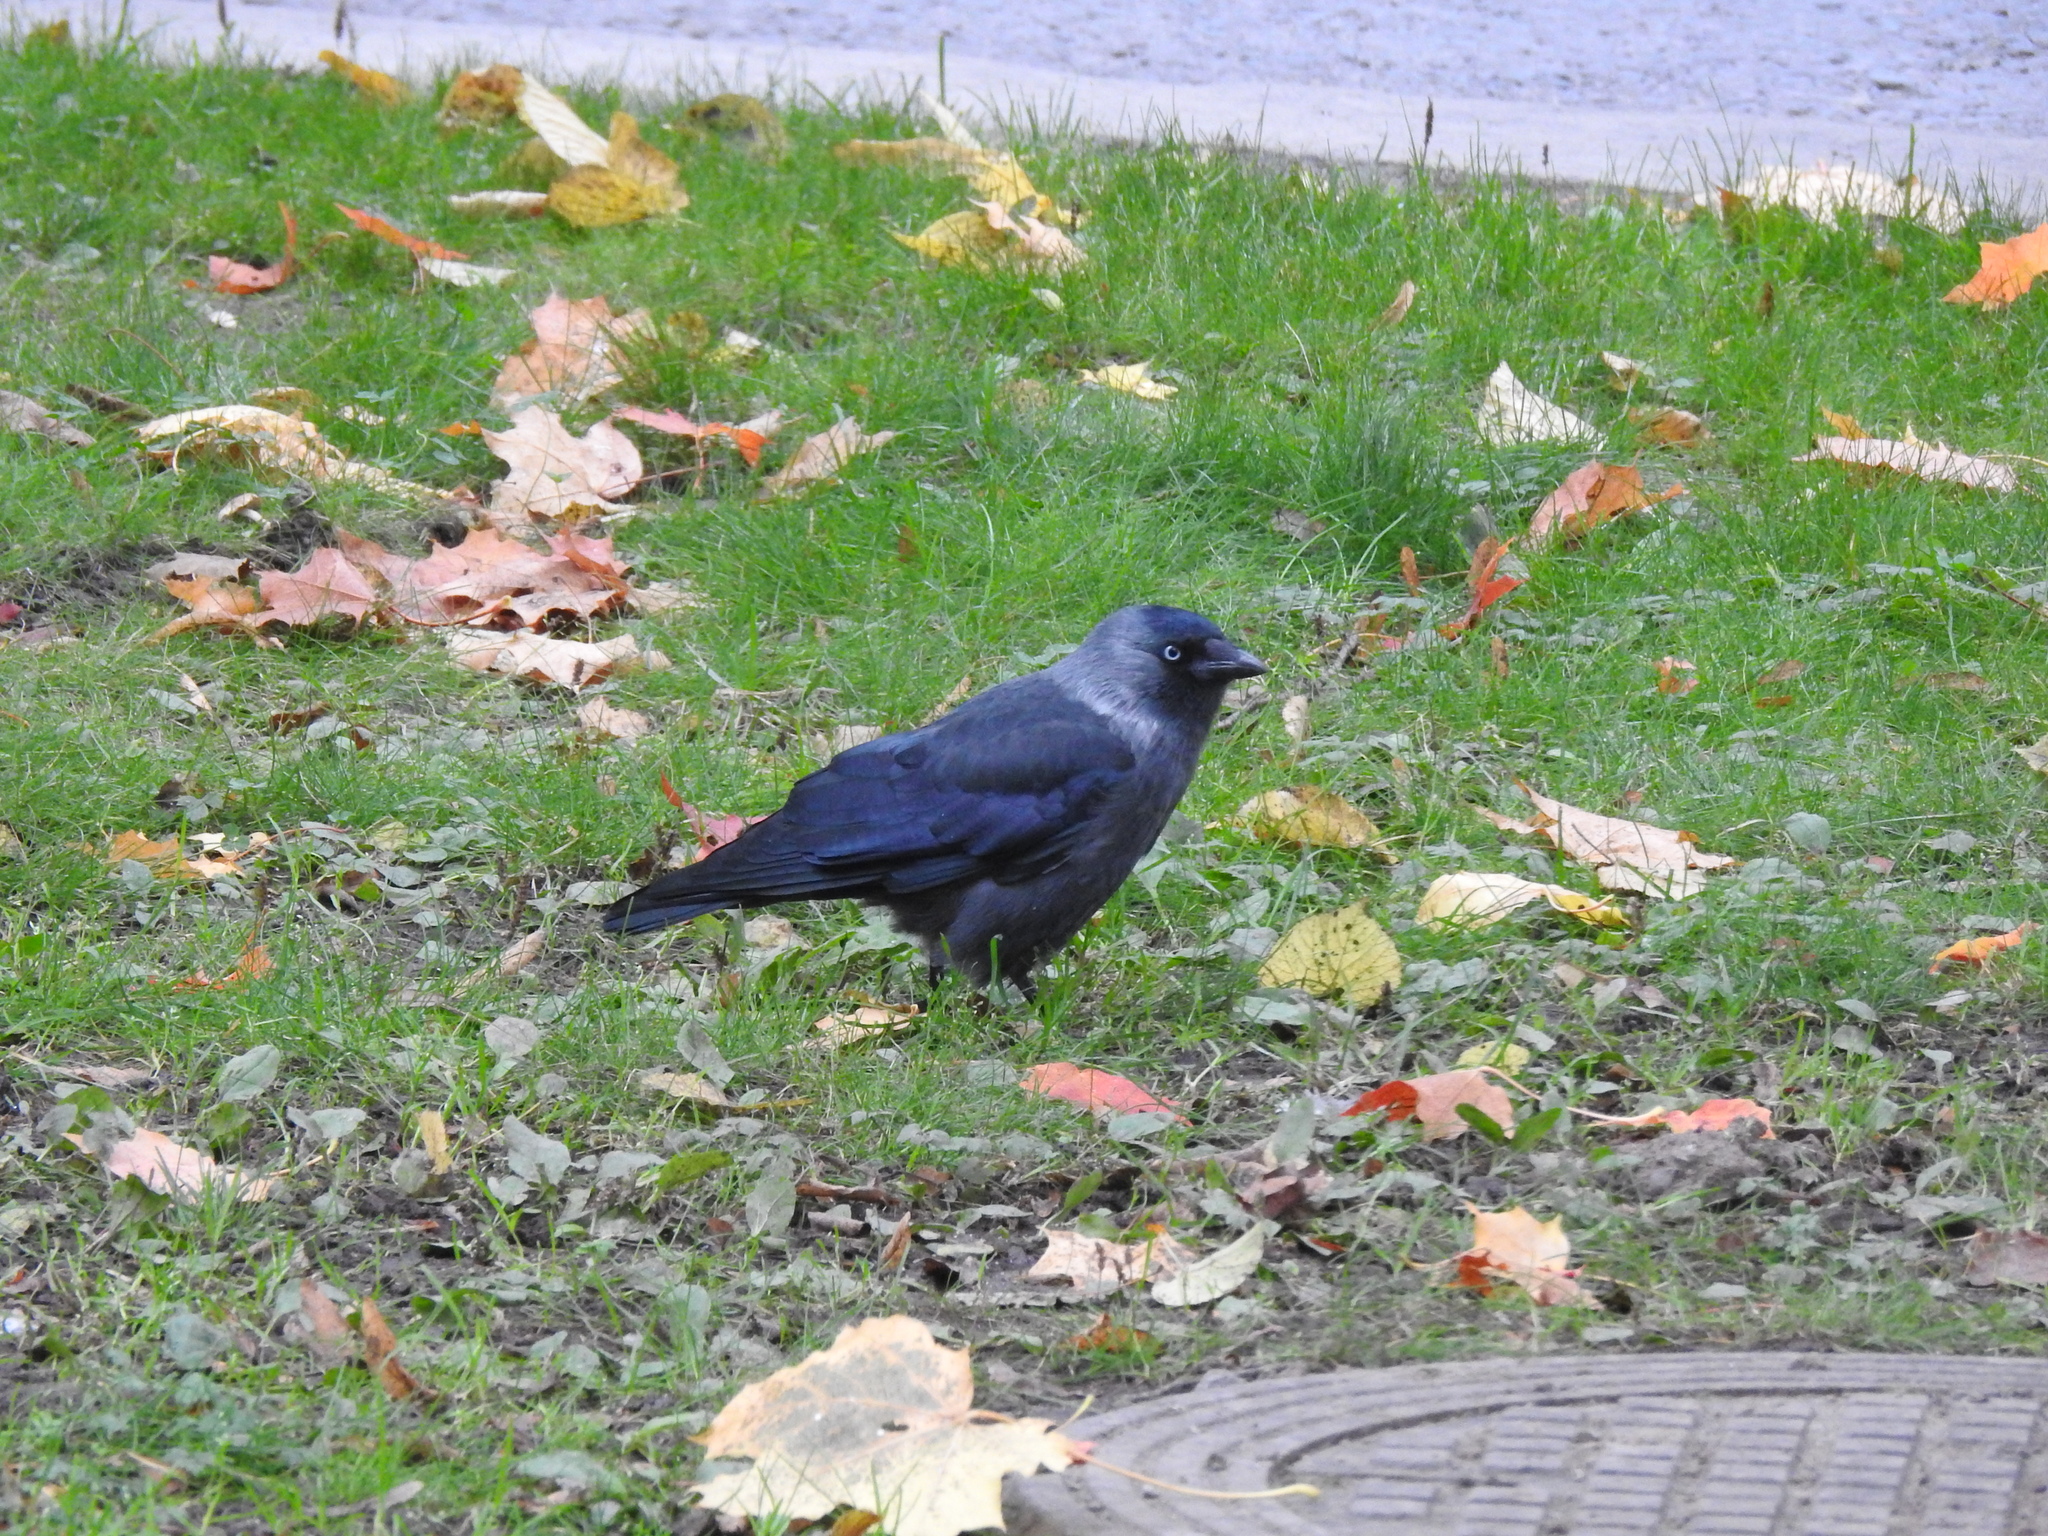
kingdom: Animalia
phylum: Chordata
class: Aves
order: Passeriformes
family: Corvidae
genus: Coloeus
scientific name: Coloeus monedula
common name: Western jackdaw
